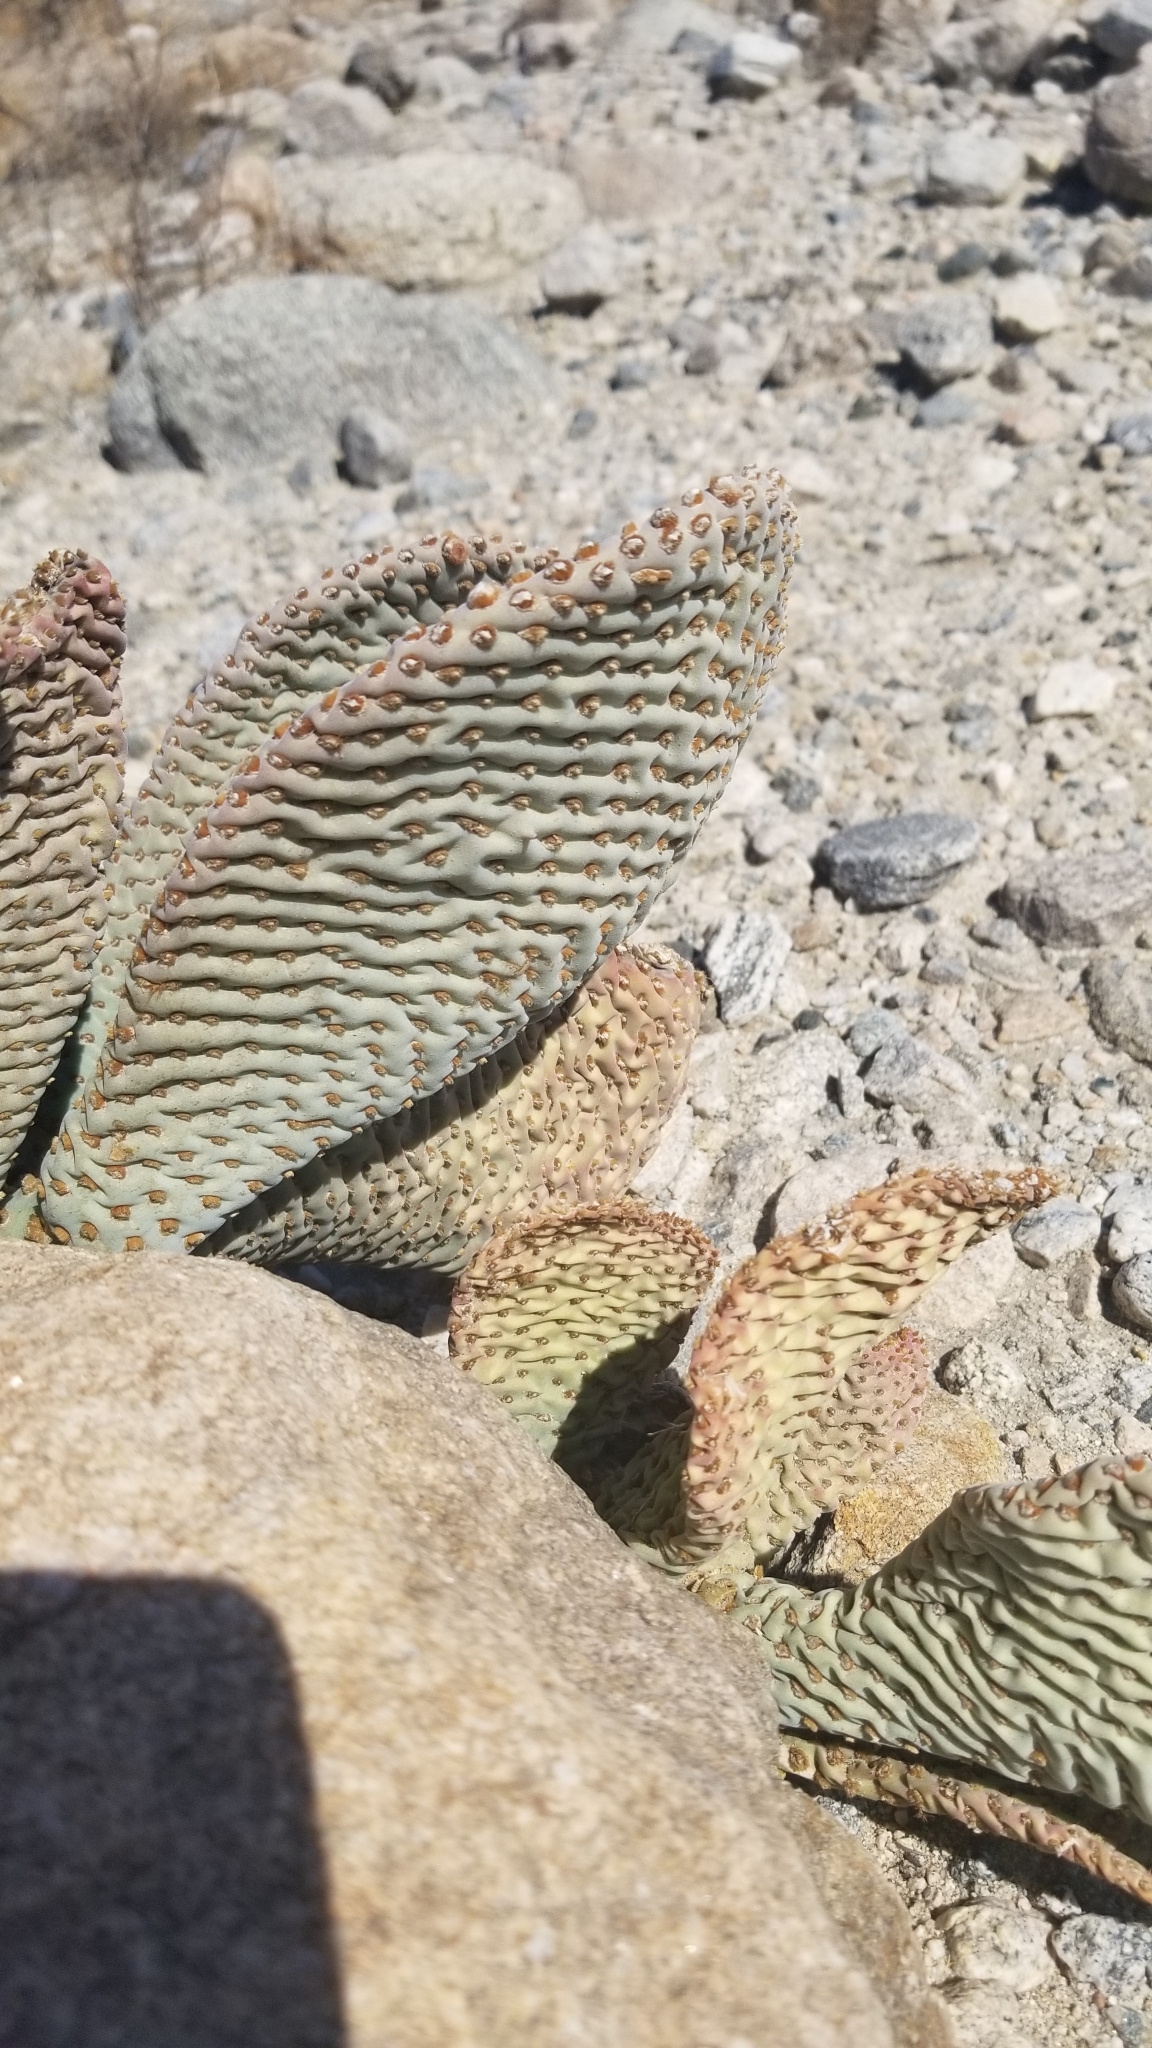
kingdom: Plantae
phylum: Tracheophyta
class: Magnoliopsida
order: Caryophyllales
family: Cactaceae
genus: Opuntia
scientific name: Opuntia basilaris
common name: Beavertail prickly-pear
